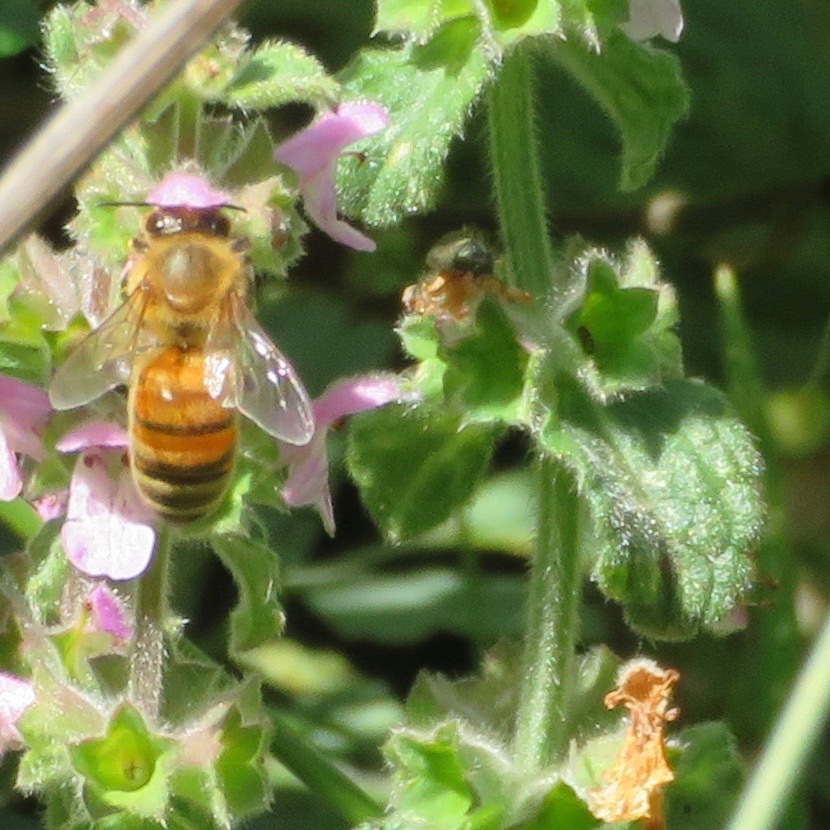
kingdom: Animalia
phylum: Arthropoda
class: Insecta
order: Hymenoptera
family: Apidae
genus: Apis
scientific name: Apis mellifera
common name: Honey bee
